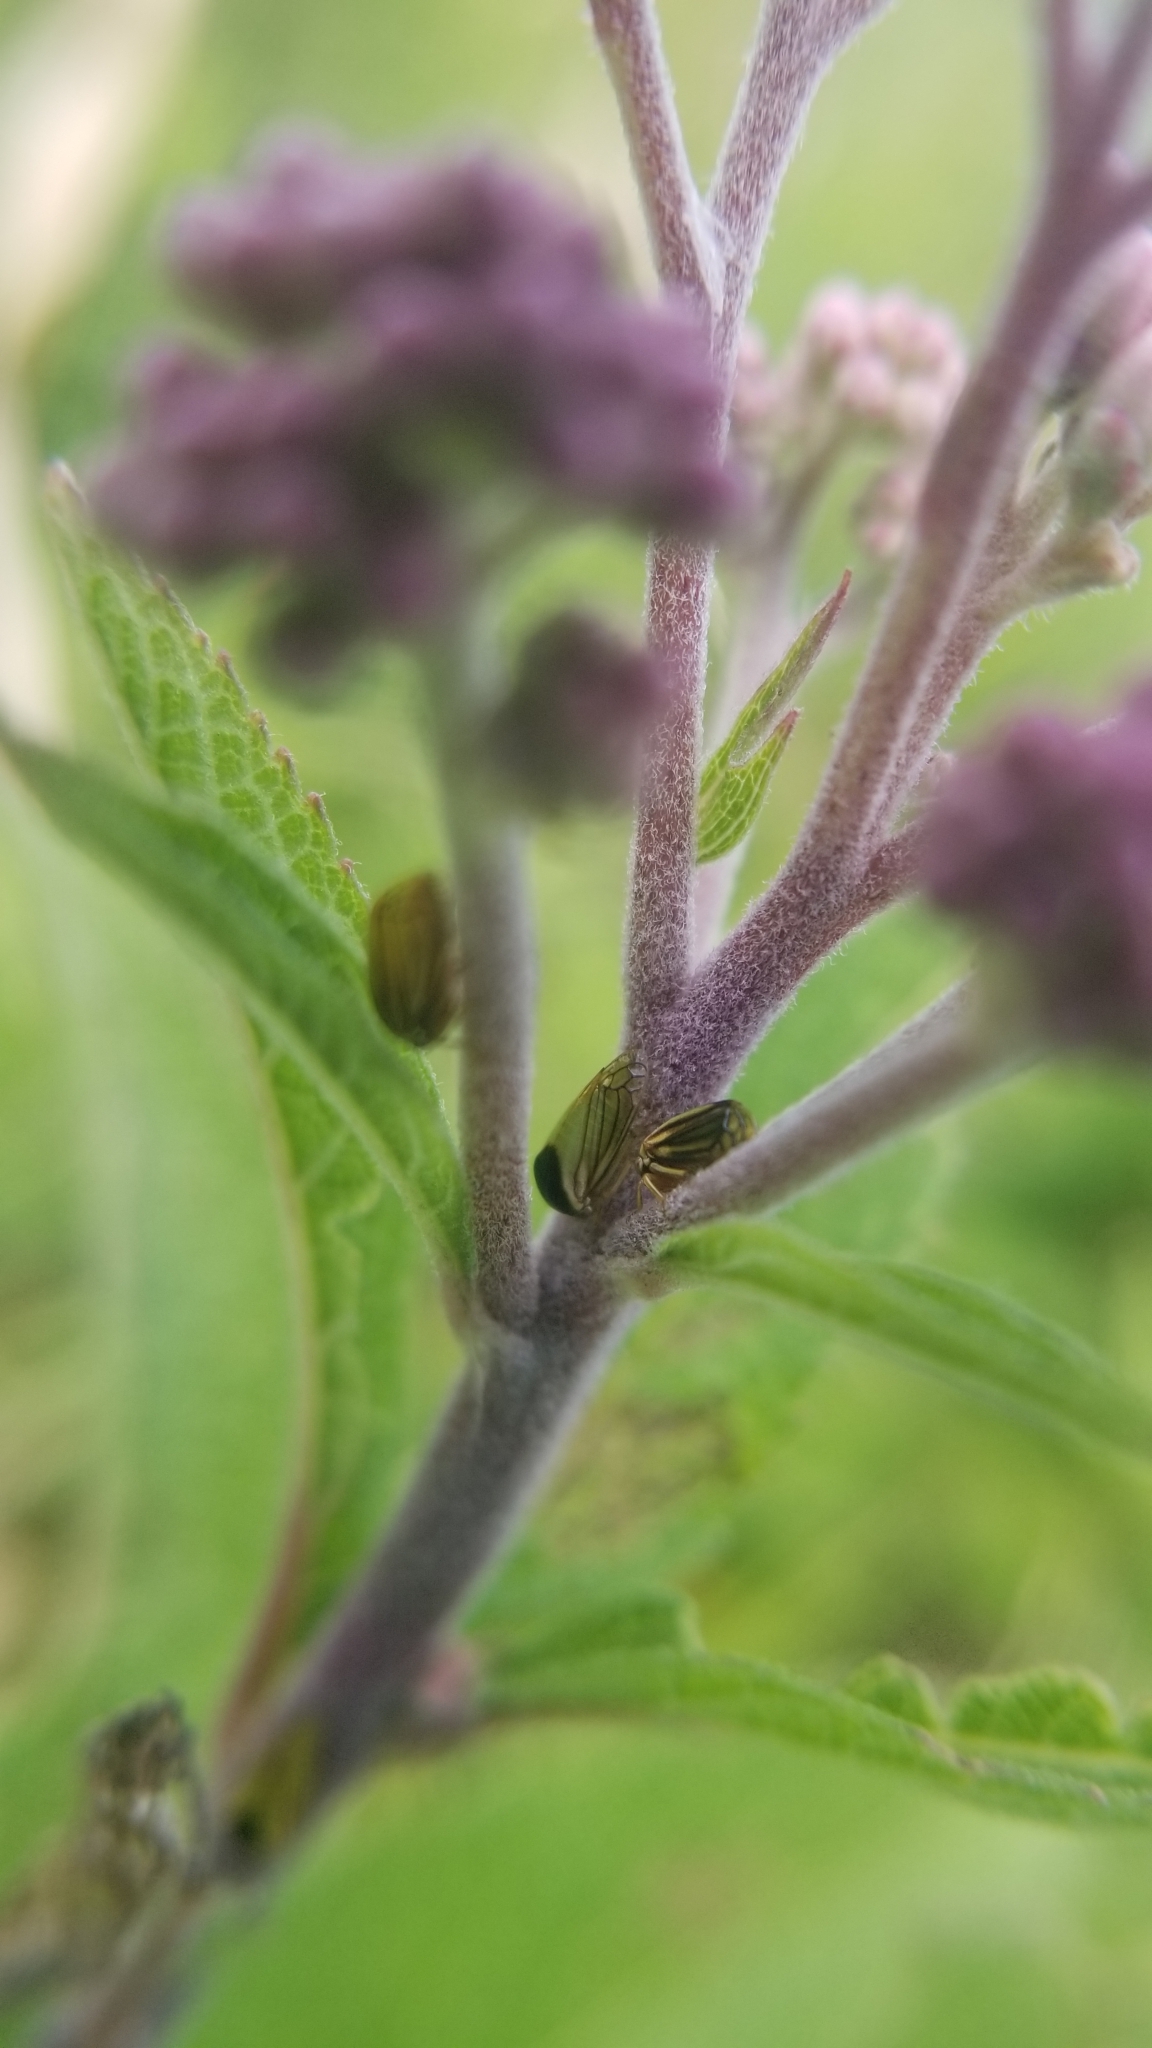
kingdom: Animalia
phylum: Arthropoda
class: Insecta
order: Hemiptera
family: Membracidae
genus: Acutalis
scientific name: Acutalis tartarea
